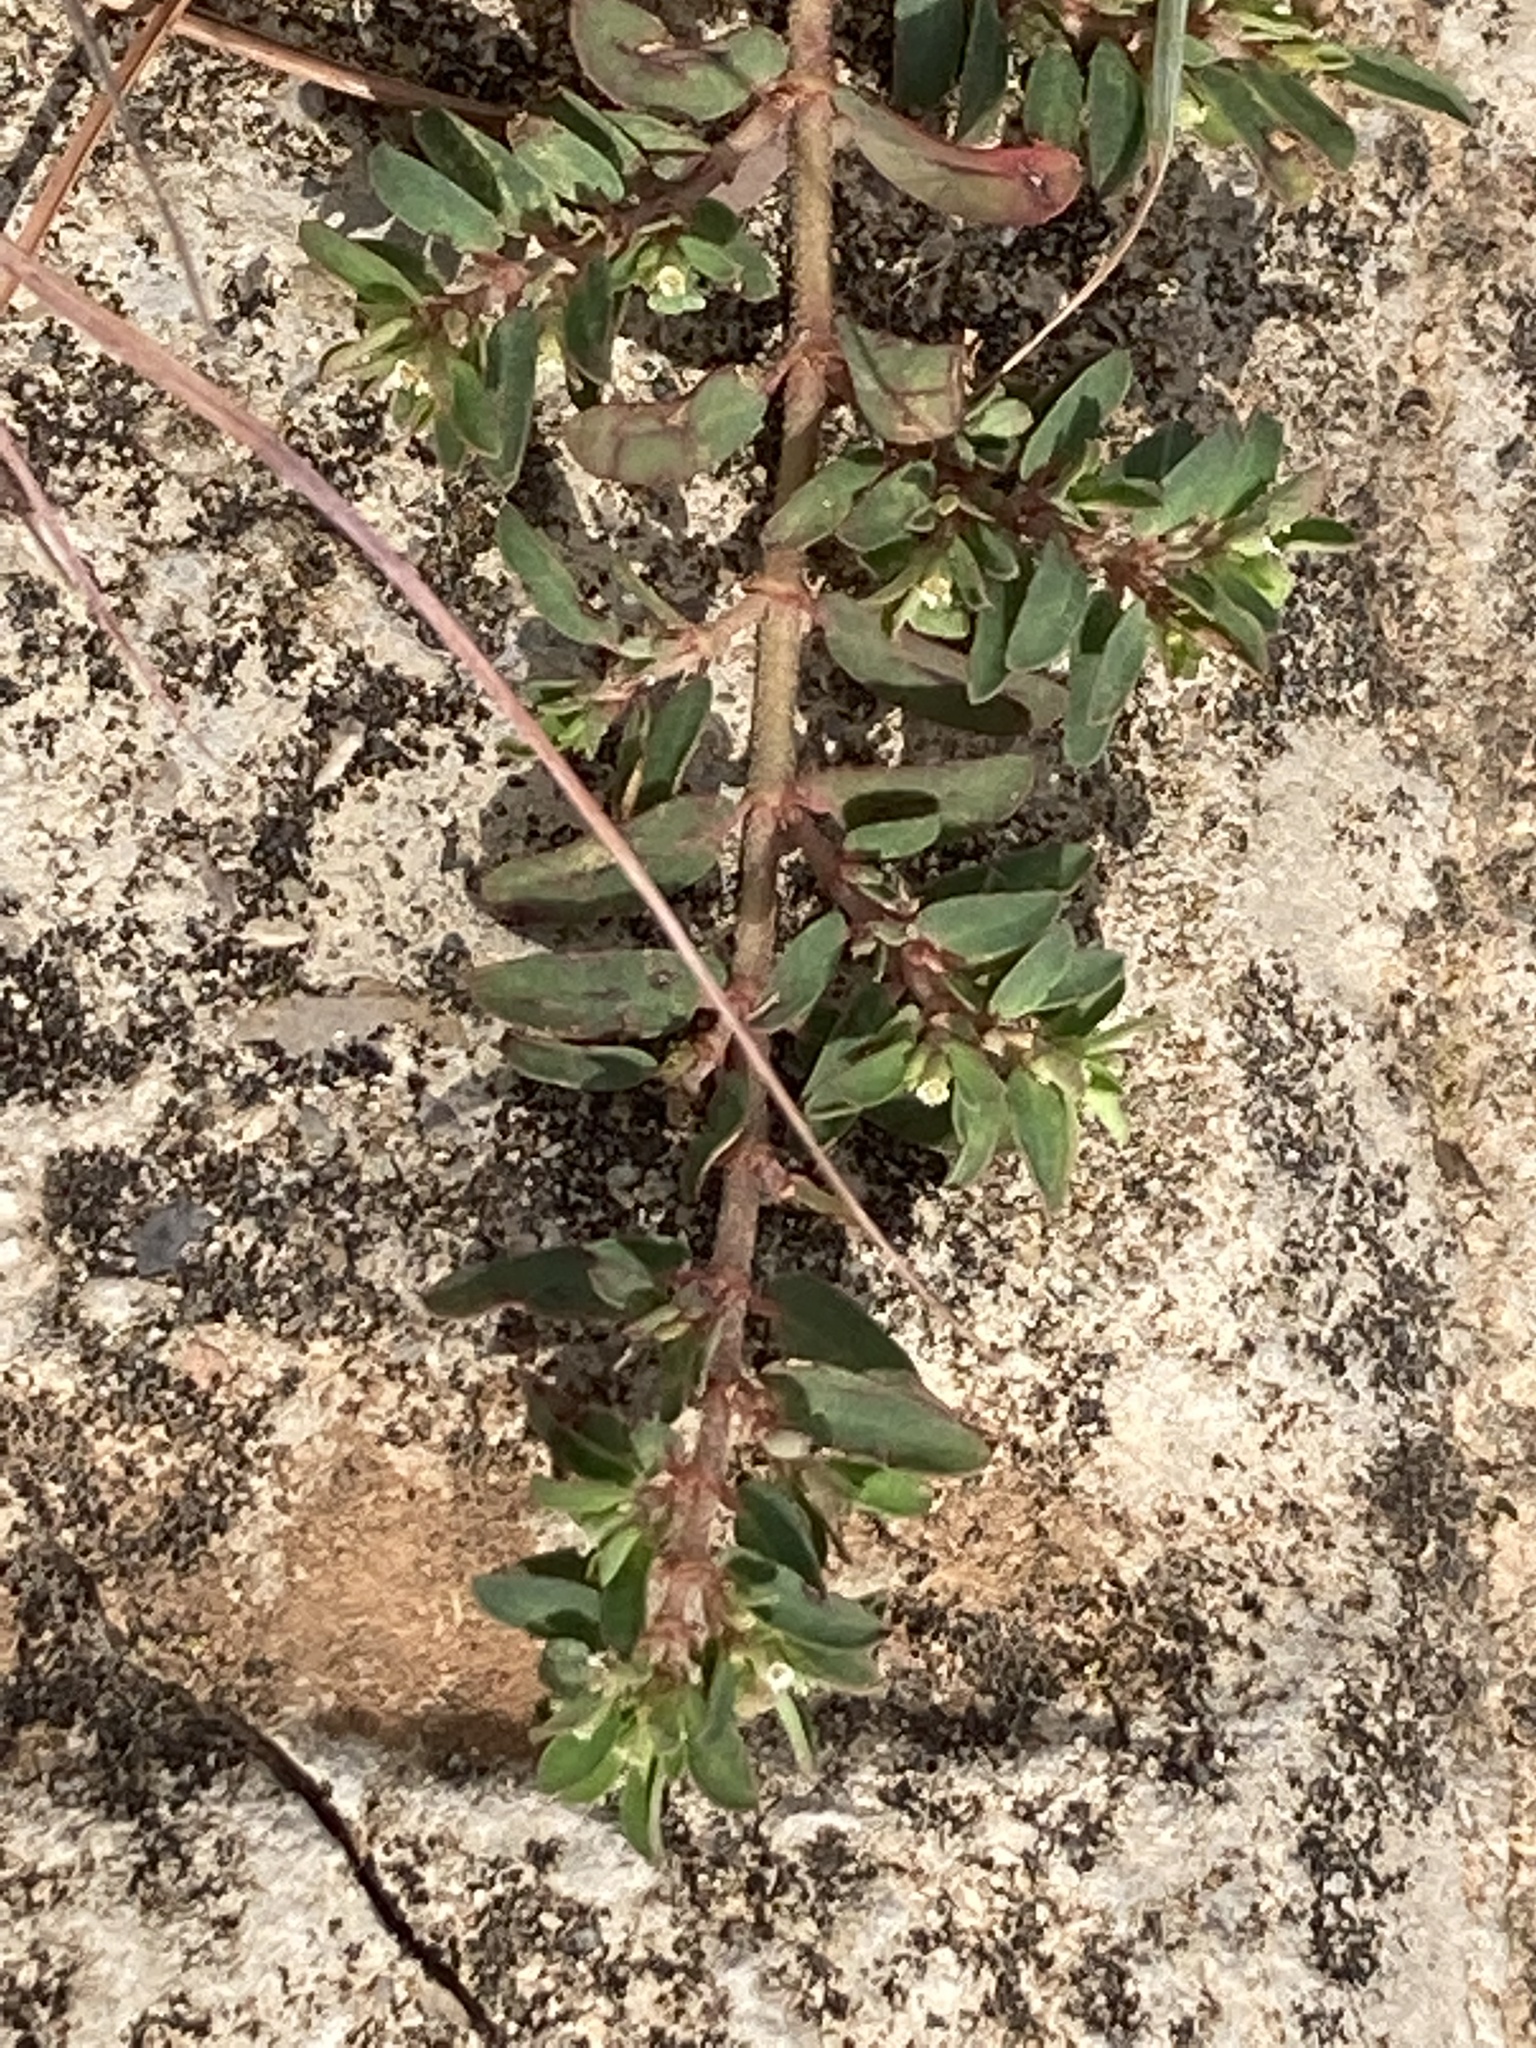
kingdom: Plantae
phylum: Tracheophyta
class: Magnoliopsida
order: Malpighiales
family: Euphorbiaceae
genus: Euphorbia
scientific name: Euphorbia maculata
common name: Spotted spurge
